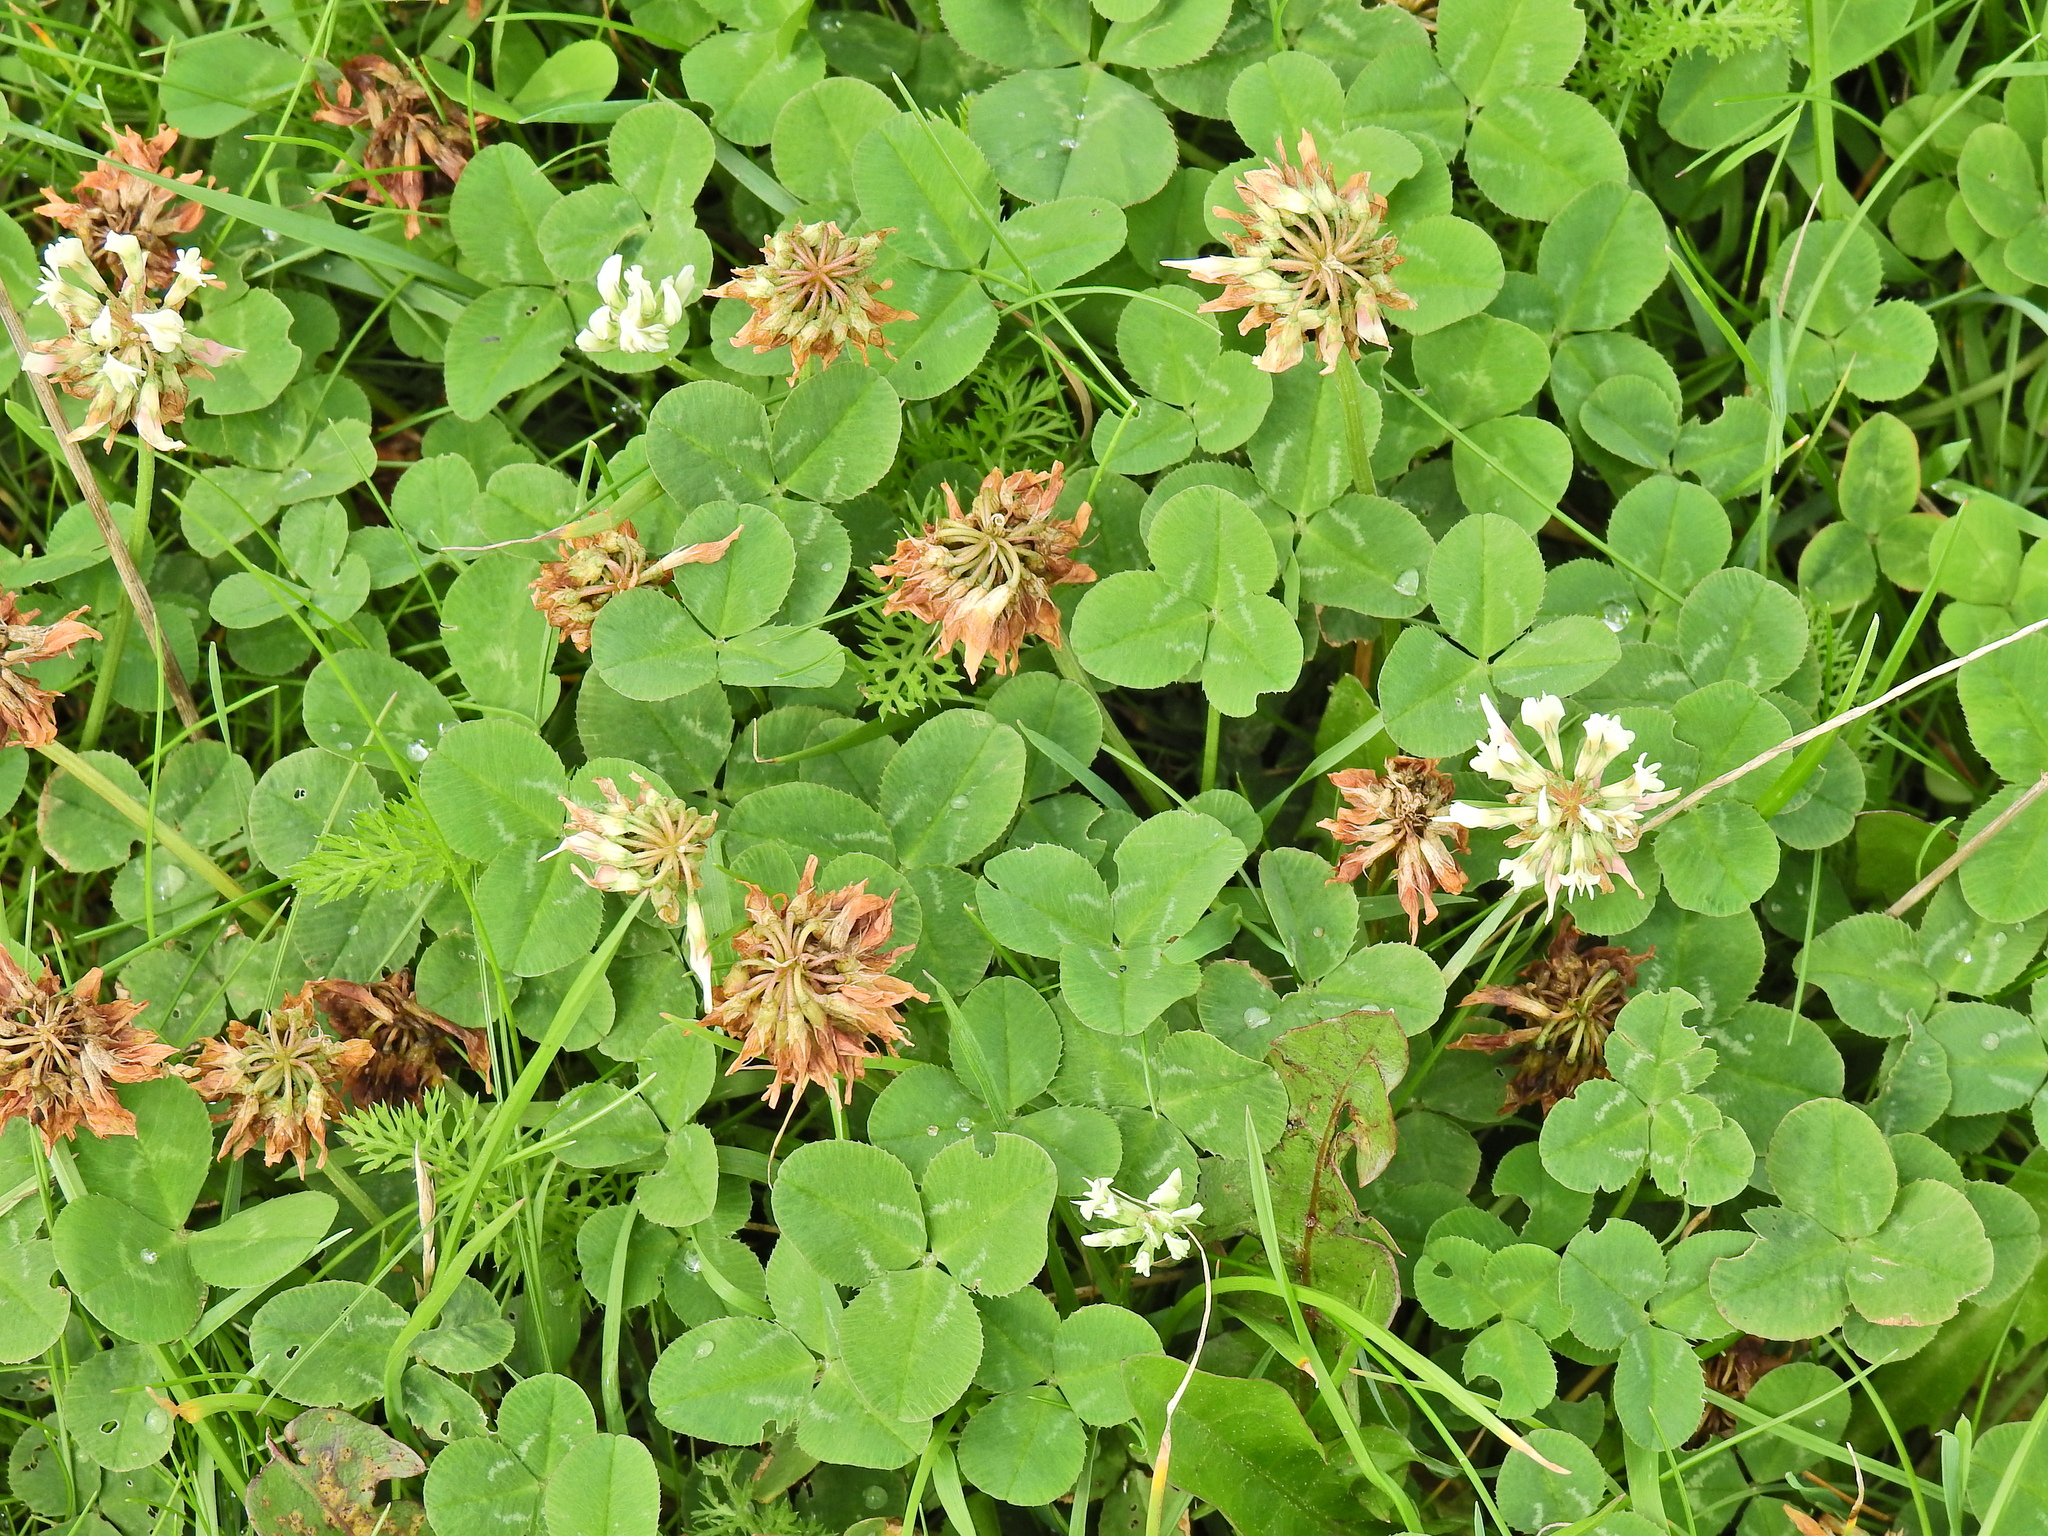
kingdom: Plantae
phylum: Tracheophyta
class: Magnoliopsida
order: Fabales
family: Fabaceae
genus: Trifolium
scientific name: Trifolium repens
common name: White clover
